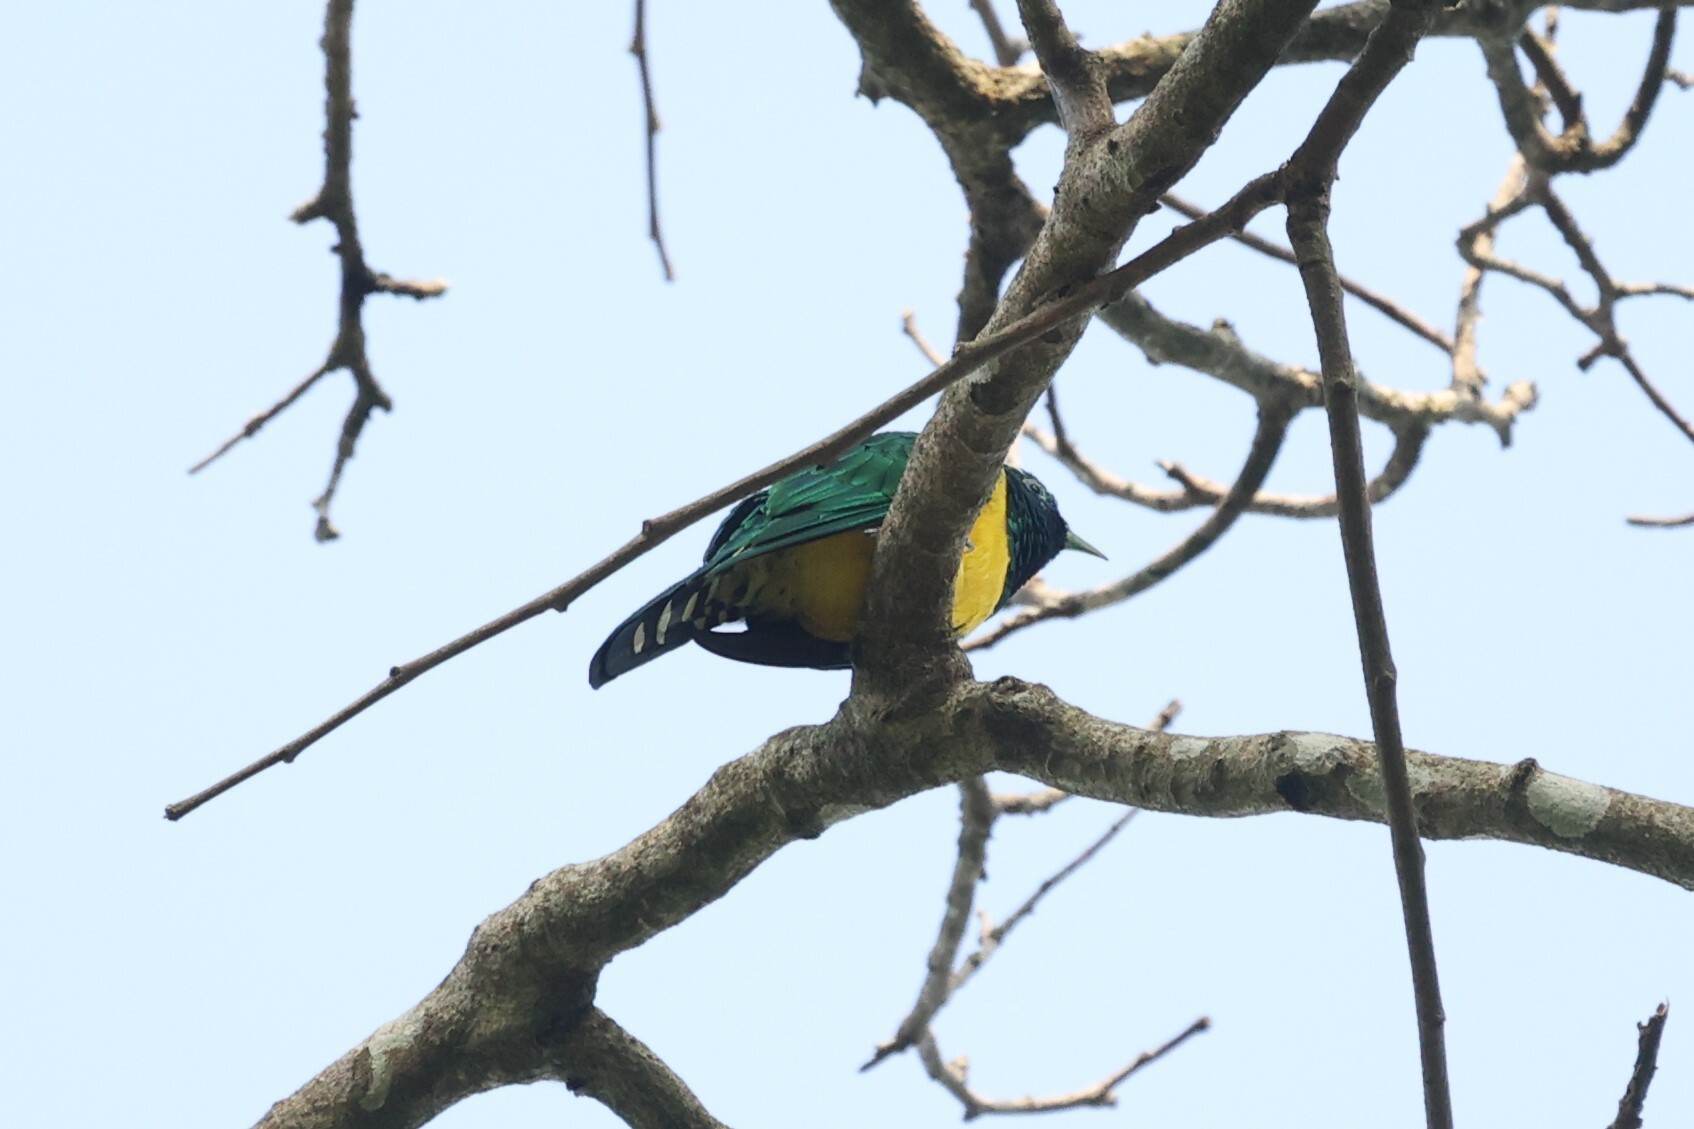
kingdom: Animalia
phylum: Chordata
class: Aves
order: Cuculiformes
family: Cuculidae
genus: Chrysococcyx
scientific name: Chrysococcyx cupreus
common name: African emerald cuckoo
